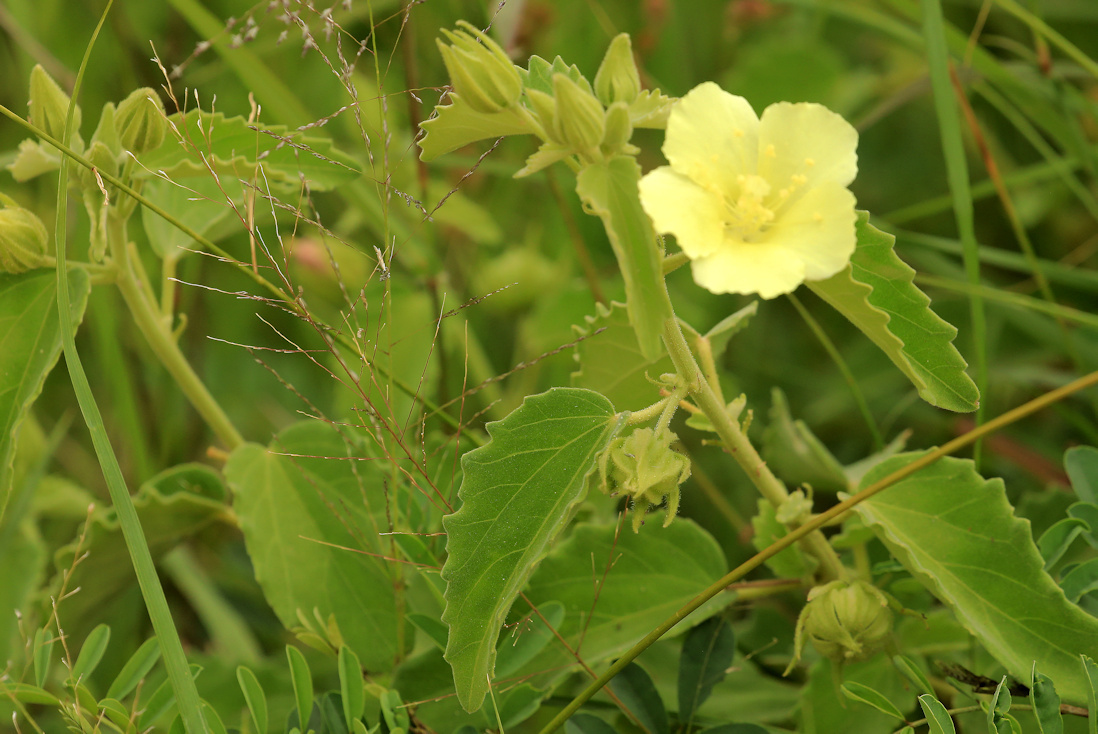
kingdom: Plantae
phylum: Tracheophyta
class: Magnoliopsida
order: Malvales
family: Malvaceae
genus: Pavonia
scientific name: Pavonia elegans
